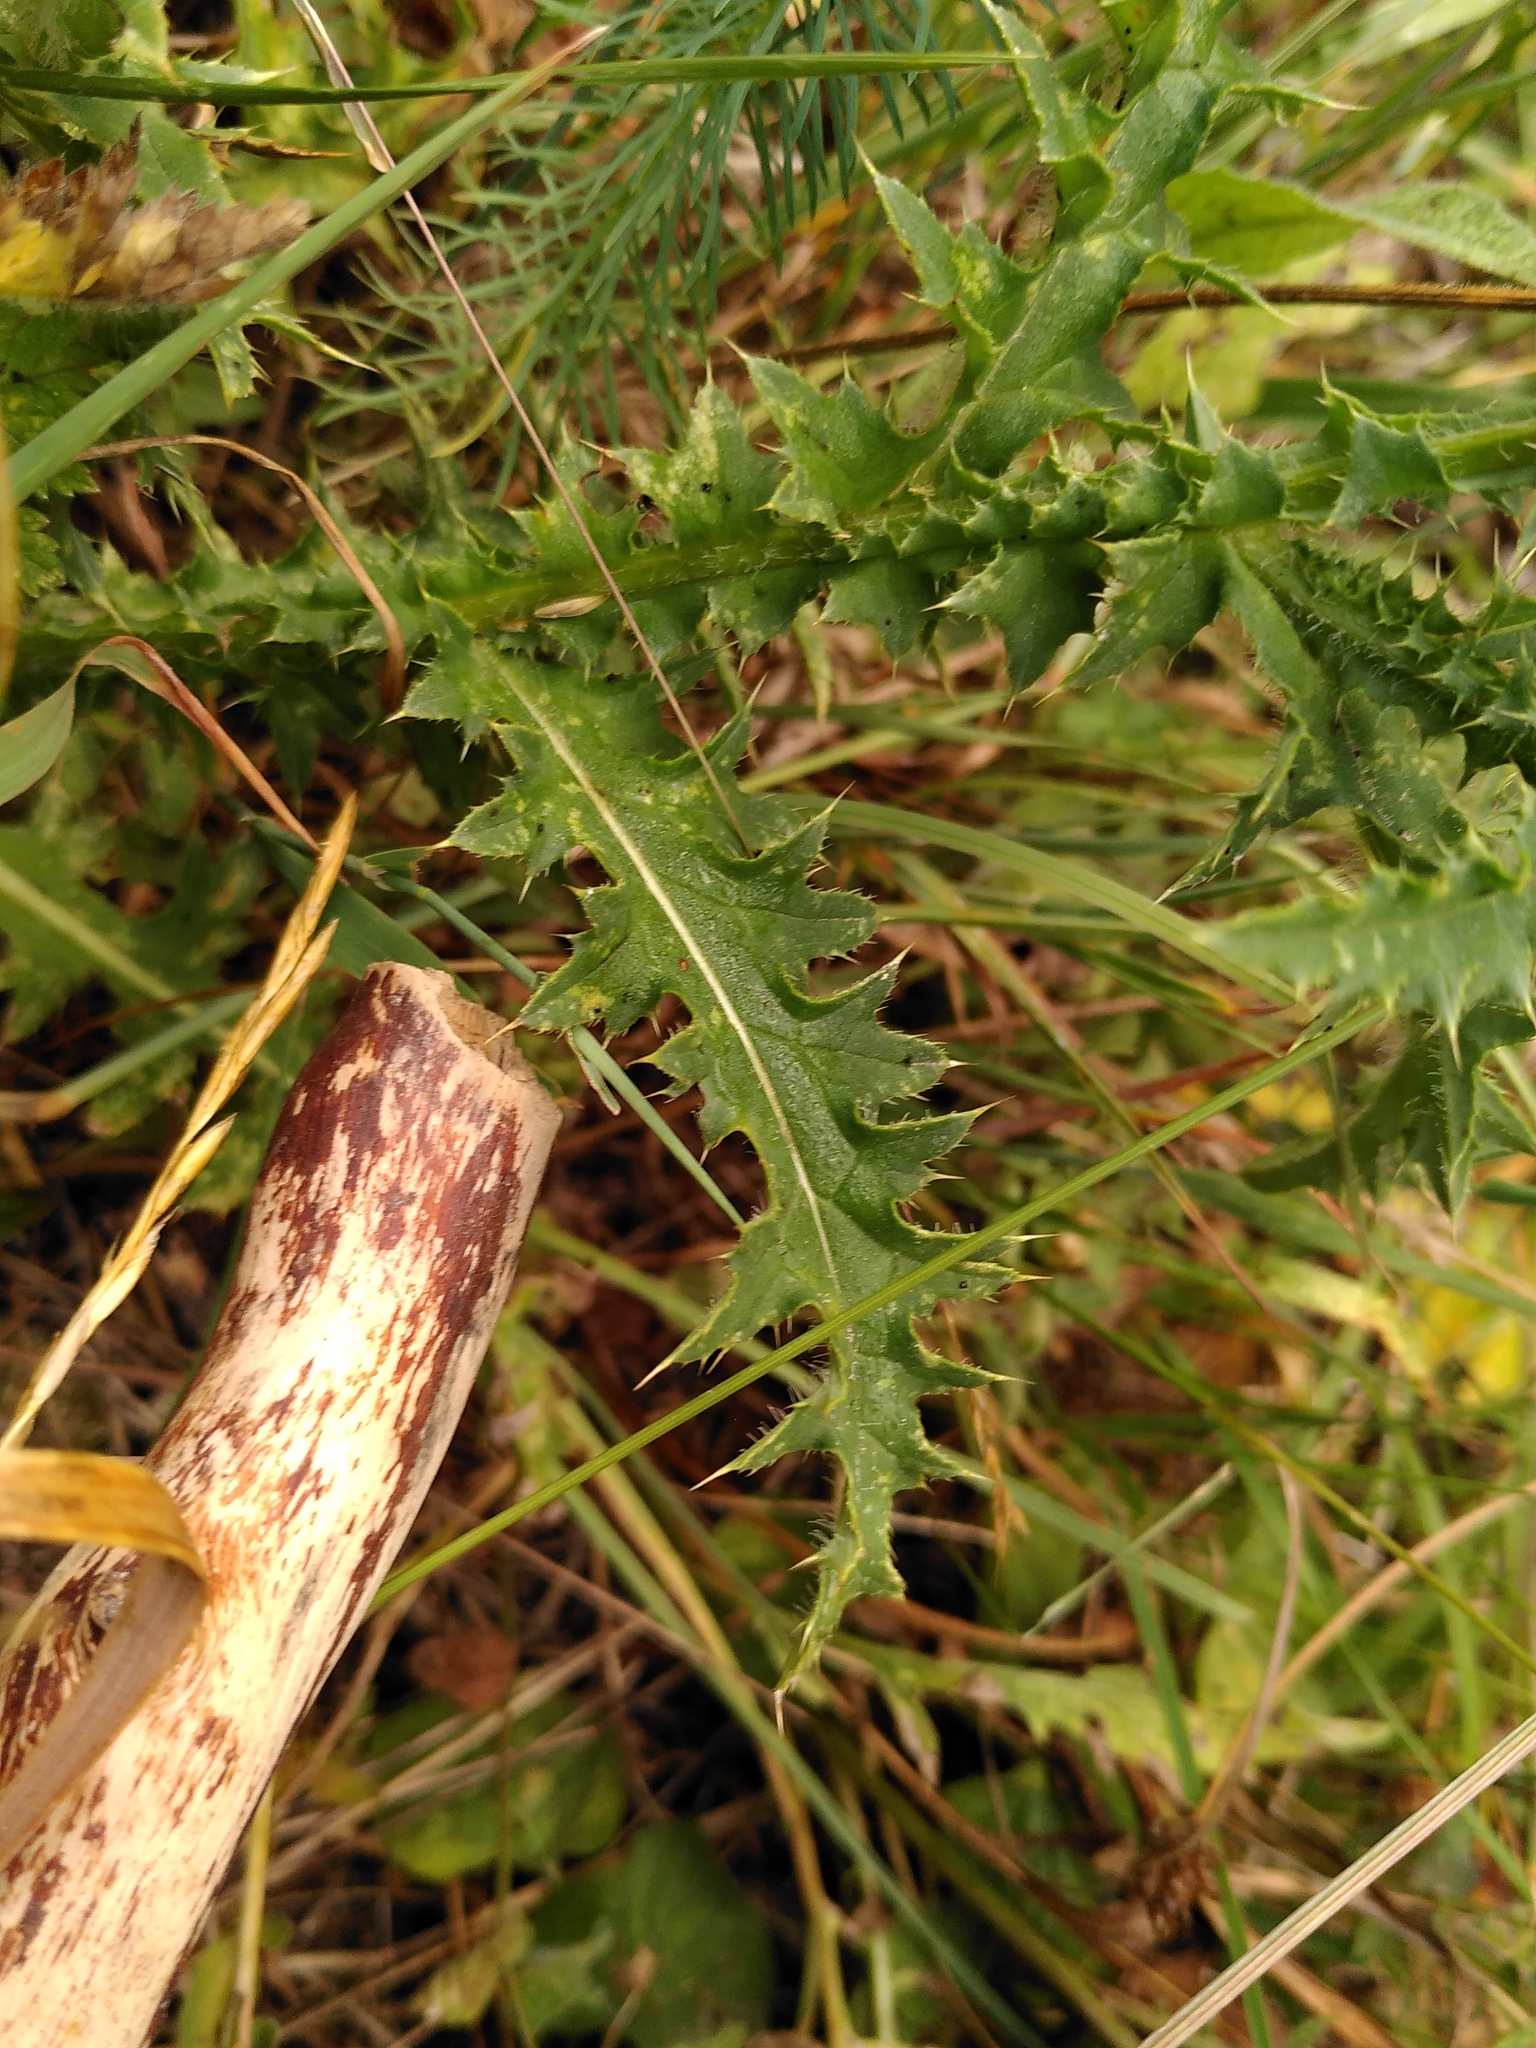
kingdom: Plantae
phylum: Tracheophyta
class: Magnoliopsida
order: Asterales
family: Asteraceae
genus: Carduus
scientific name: Carduus defloratus
